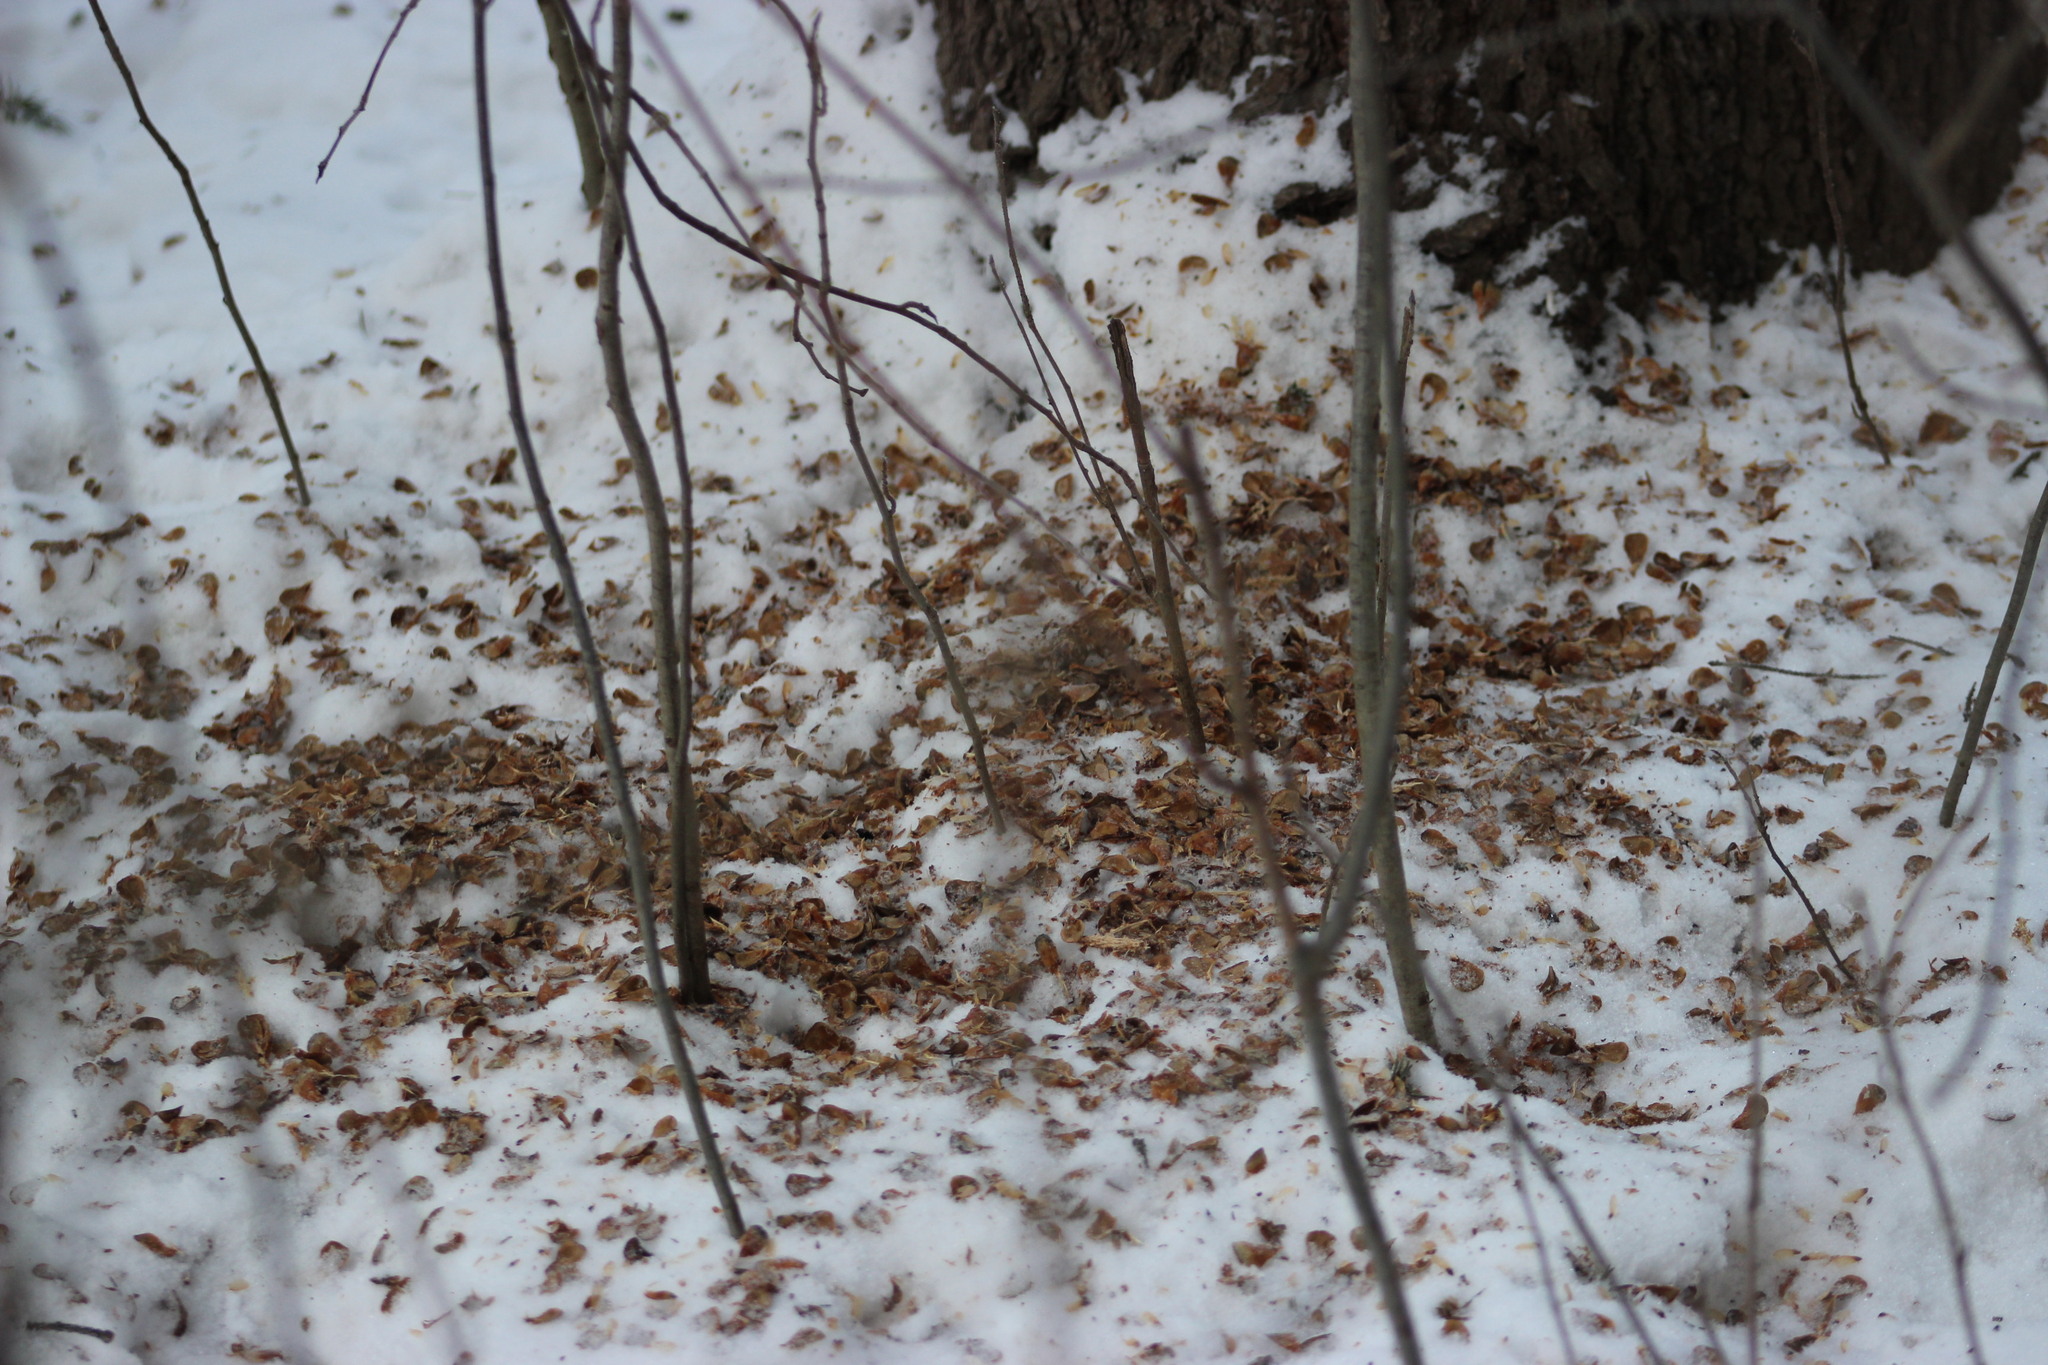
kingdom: Plantae
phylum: Tracheophyta
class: Pinopsida
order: Pinales
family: Pinaceae
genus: Pinus
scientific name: Pinus sibirica
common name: Siberian pine
